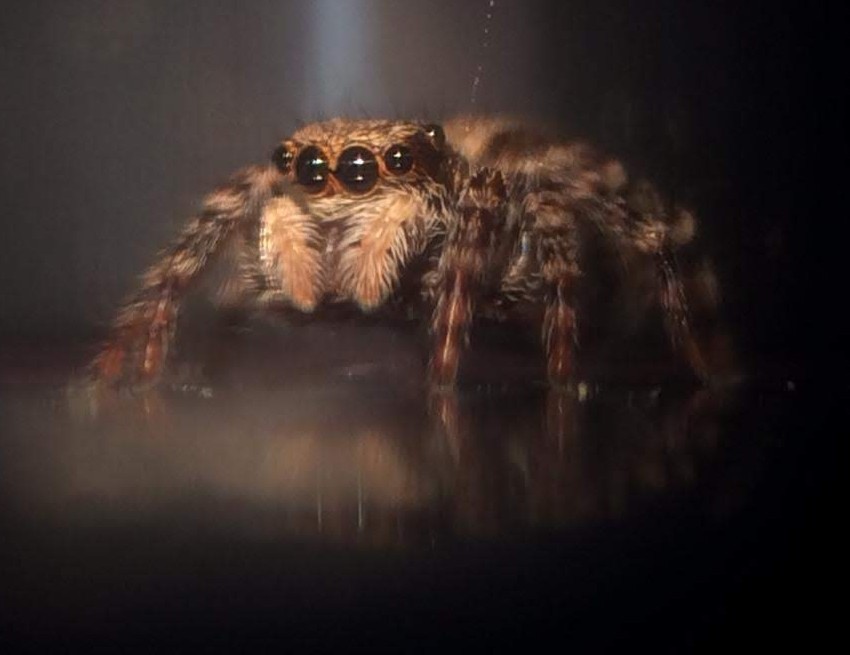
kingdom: Animalia
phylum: Arthropoda
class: Arachnida
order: Araneae
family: Salticidae
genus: Marpissa
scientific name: Marpissa muscosa
